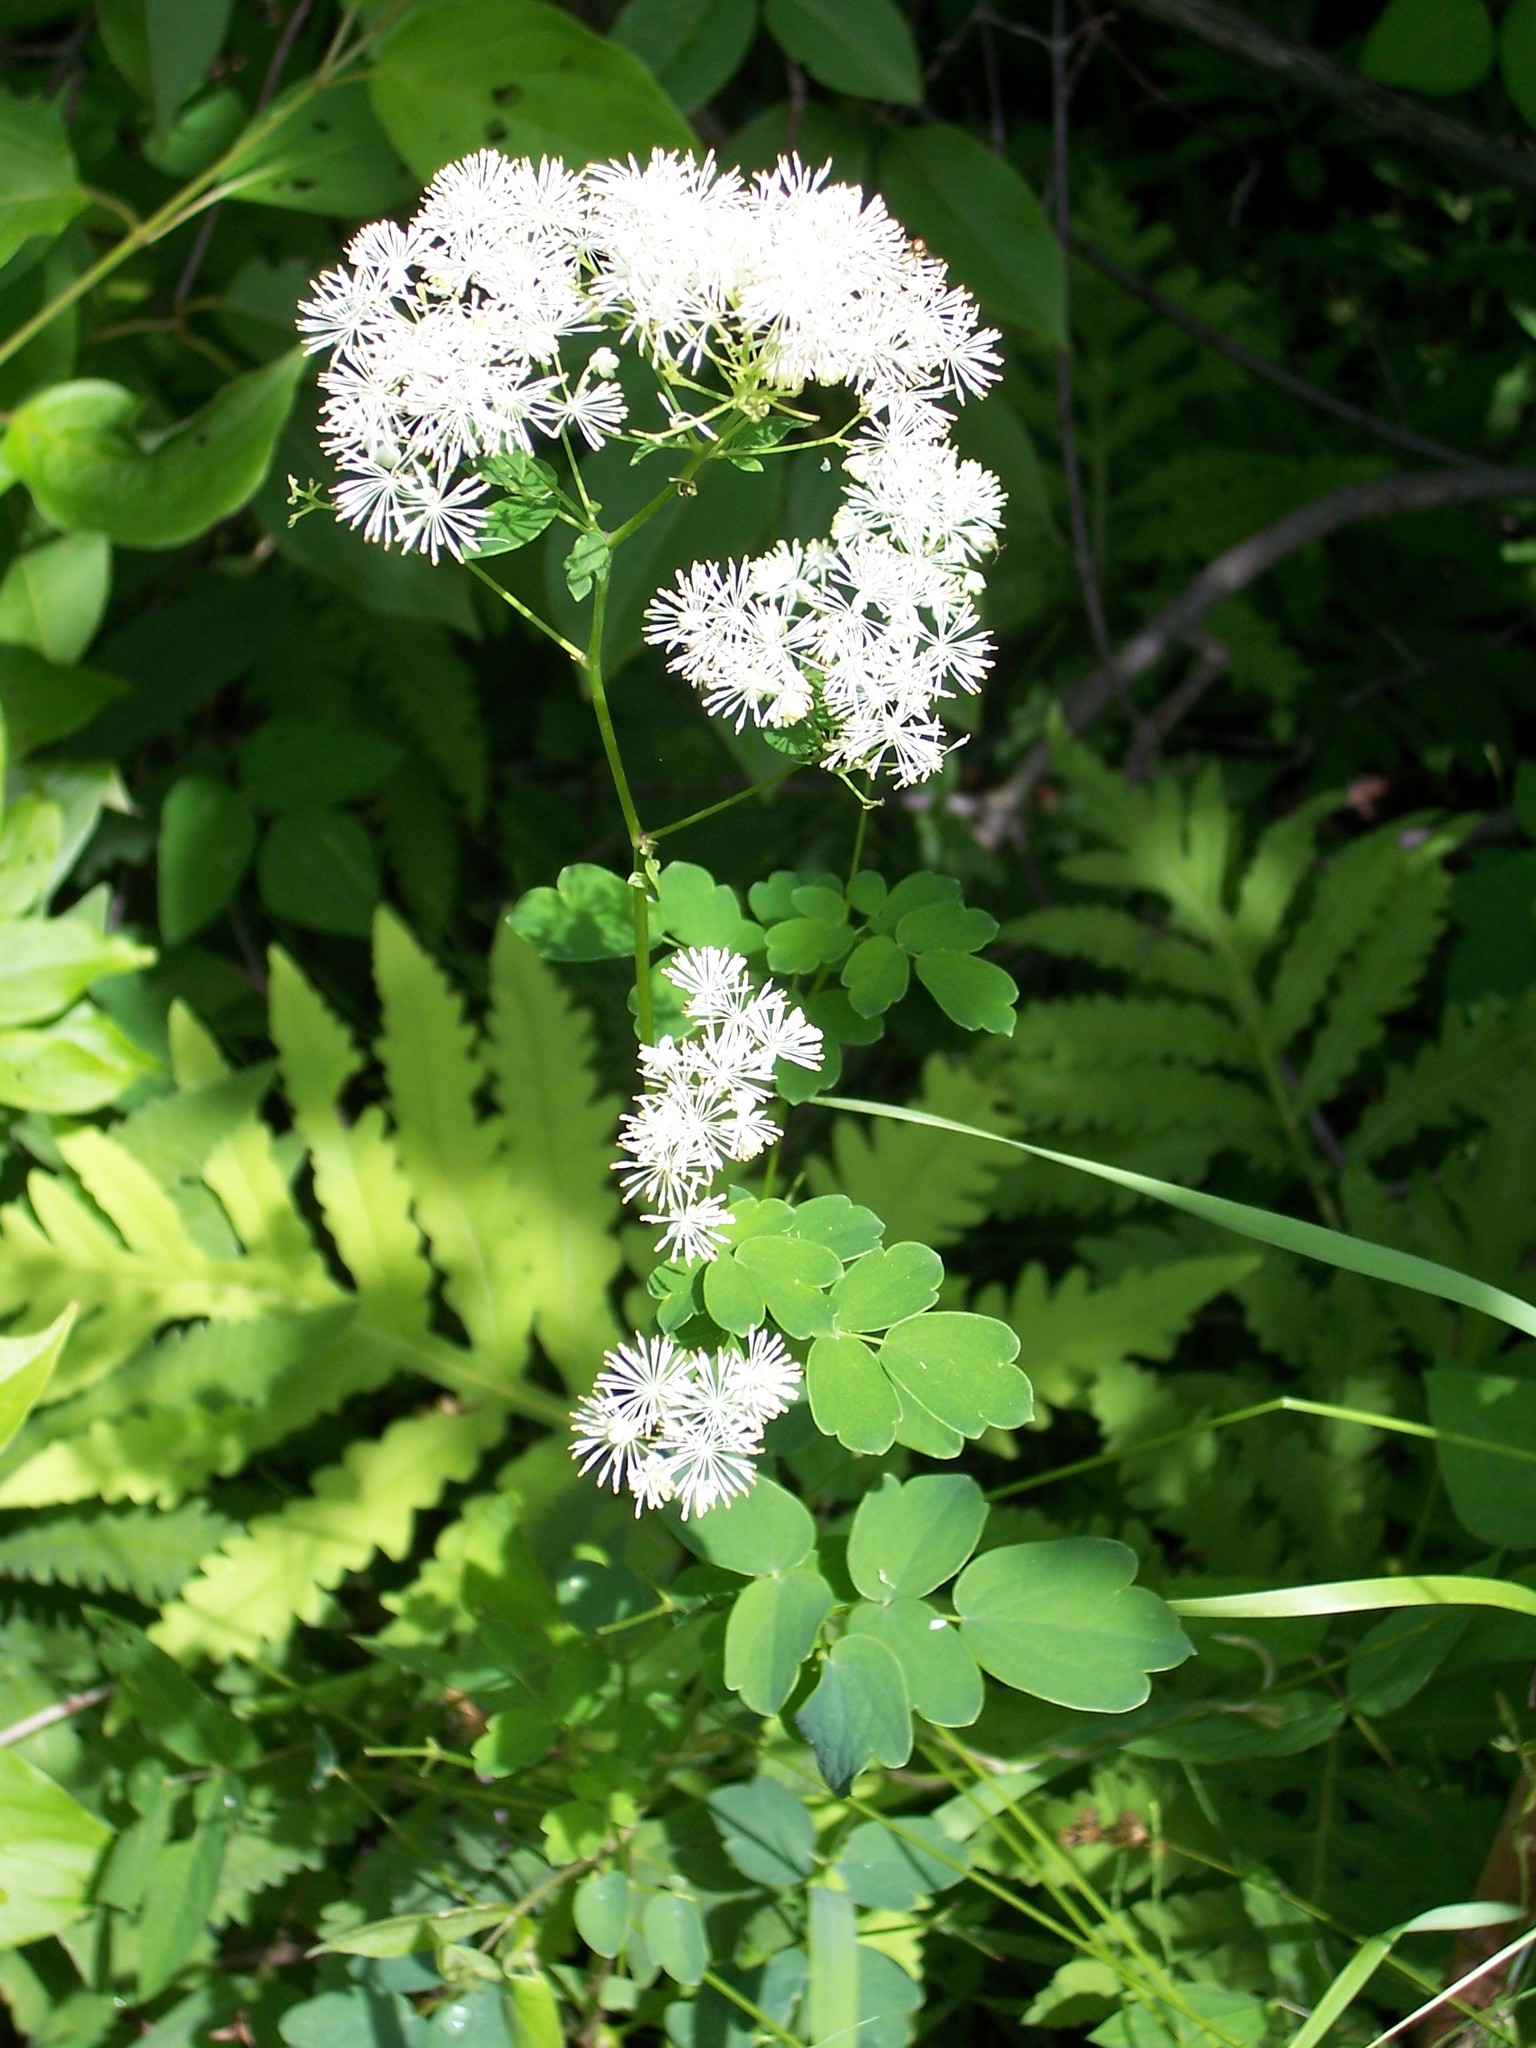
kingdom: Plantae
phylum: Tracheophyta
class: Magnoliopsida
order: Ranunculales
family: Ranunculaceae
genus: Thalictrum
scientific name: Thalictrum pubescens
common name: King-of-the-meadow
